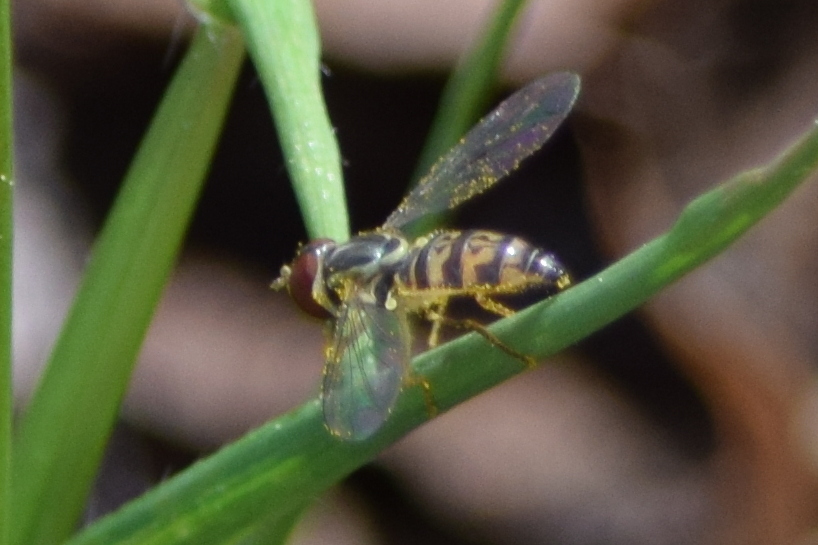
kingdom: Animalia
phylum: Arthropoda
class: Insecta
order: Diptera
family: Syrphidae
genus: Toxomerus
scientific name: Toxomerus geminatus
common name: Eastern calligrapher
